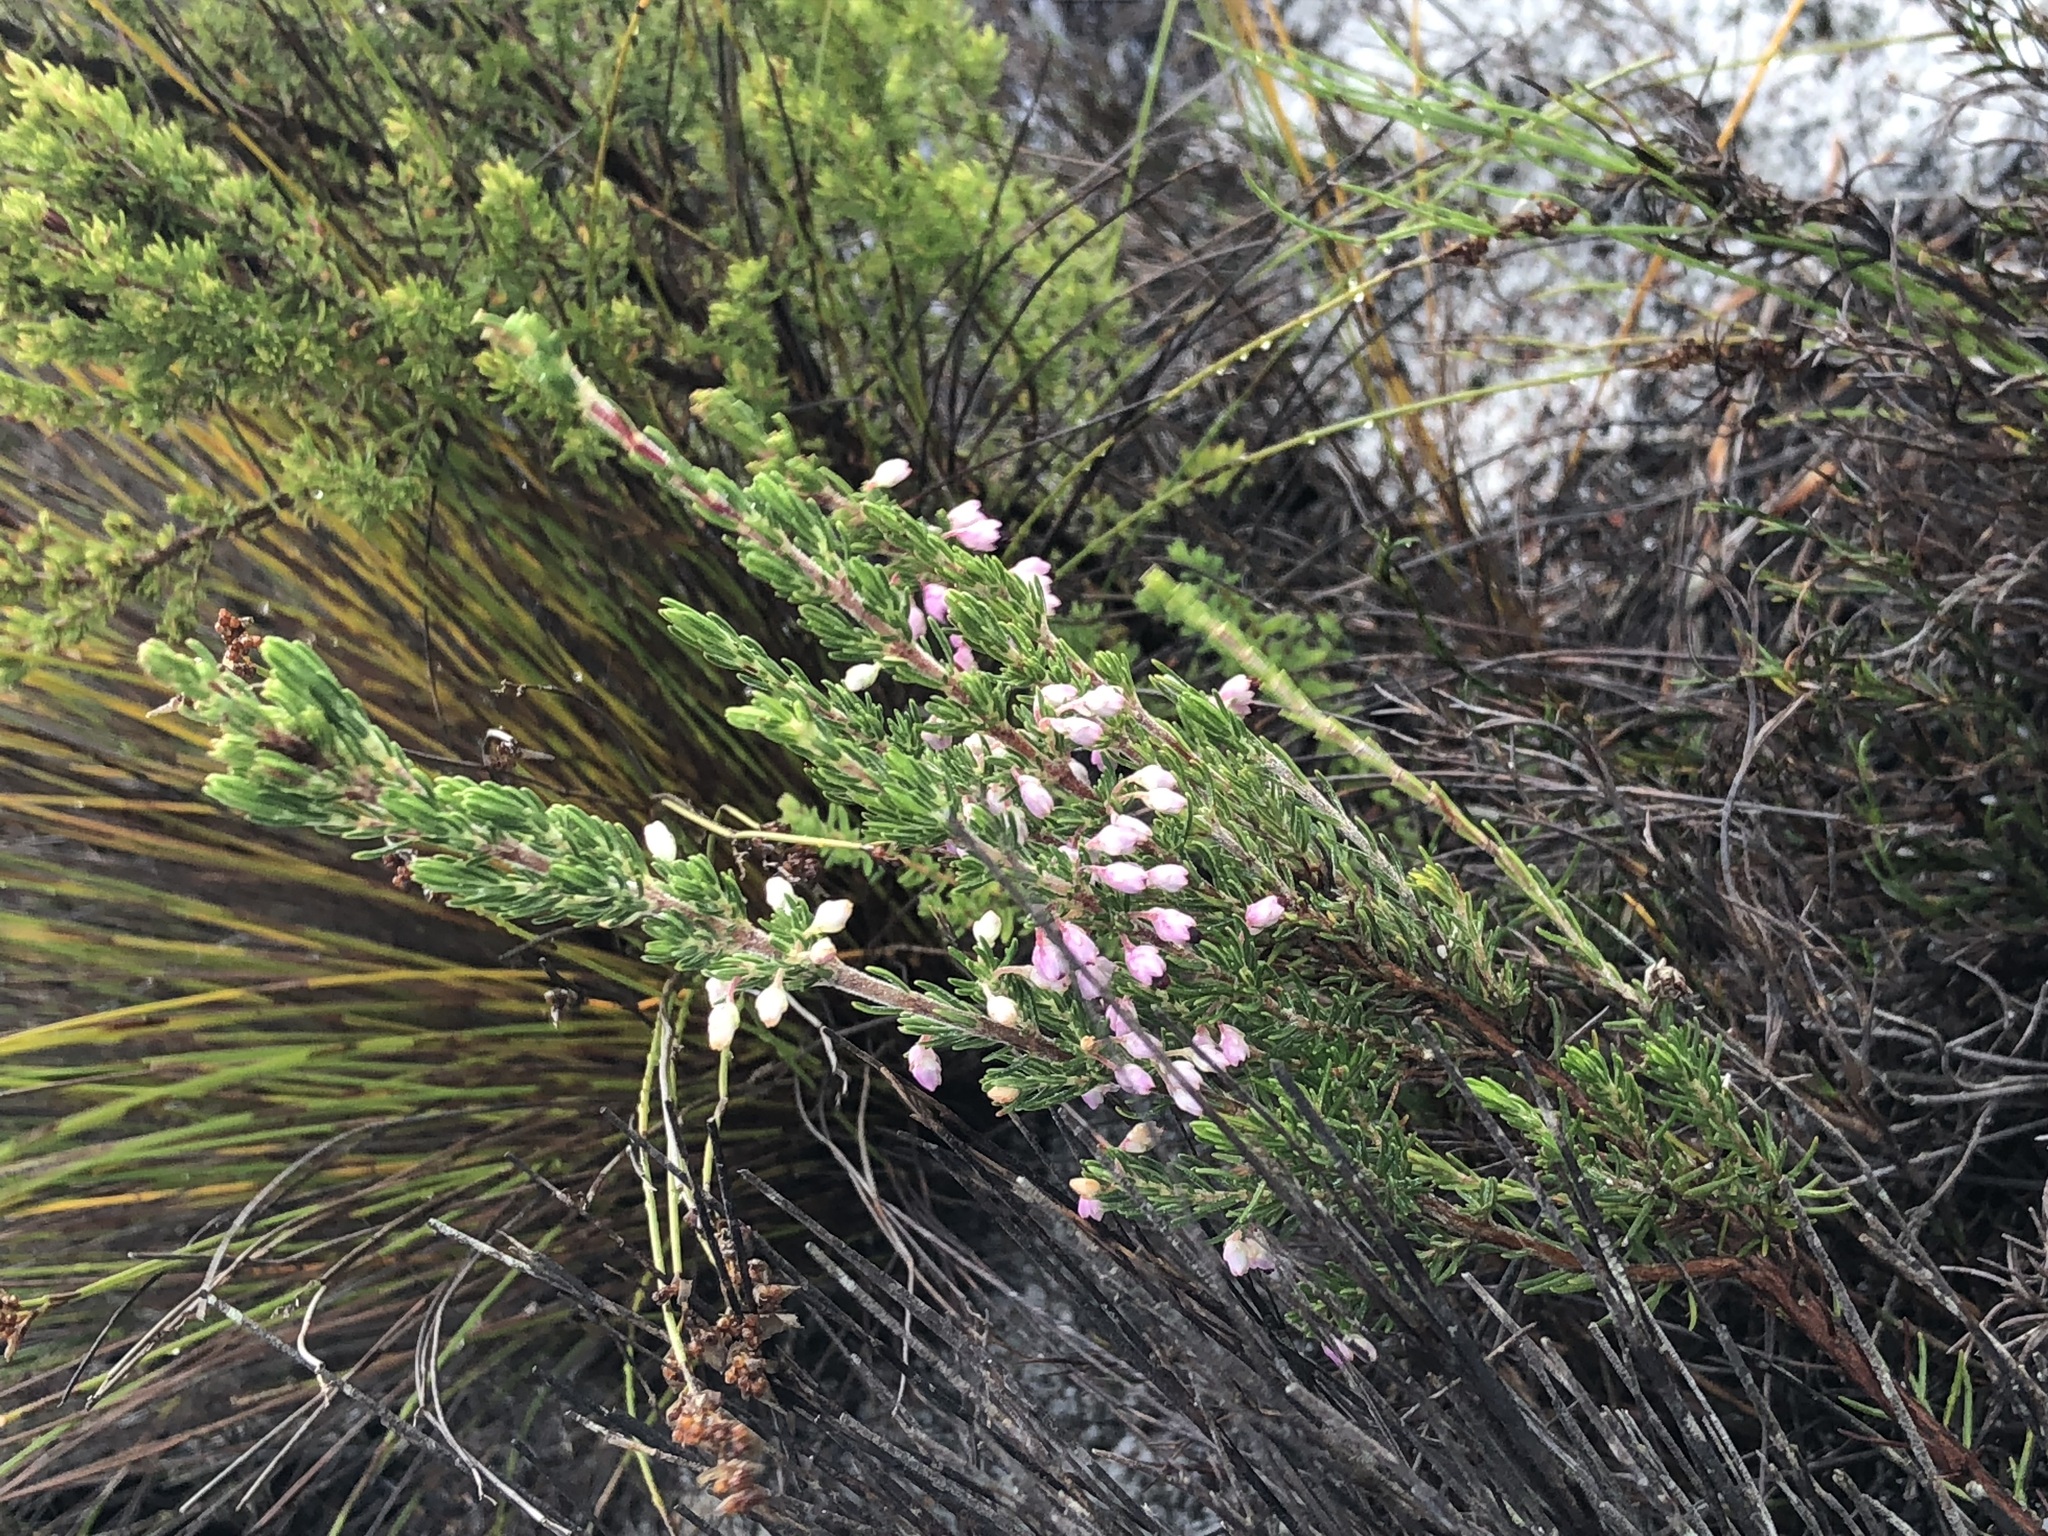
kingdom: Plantae
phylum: Tracheophyta
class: Magnoliopsida
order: Ericales
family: Ericaceae
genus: Erica
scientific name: Erica placentiflora
